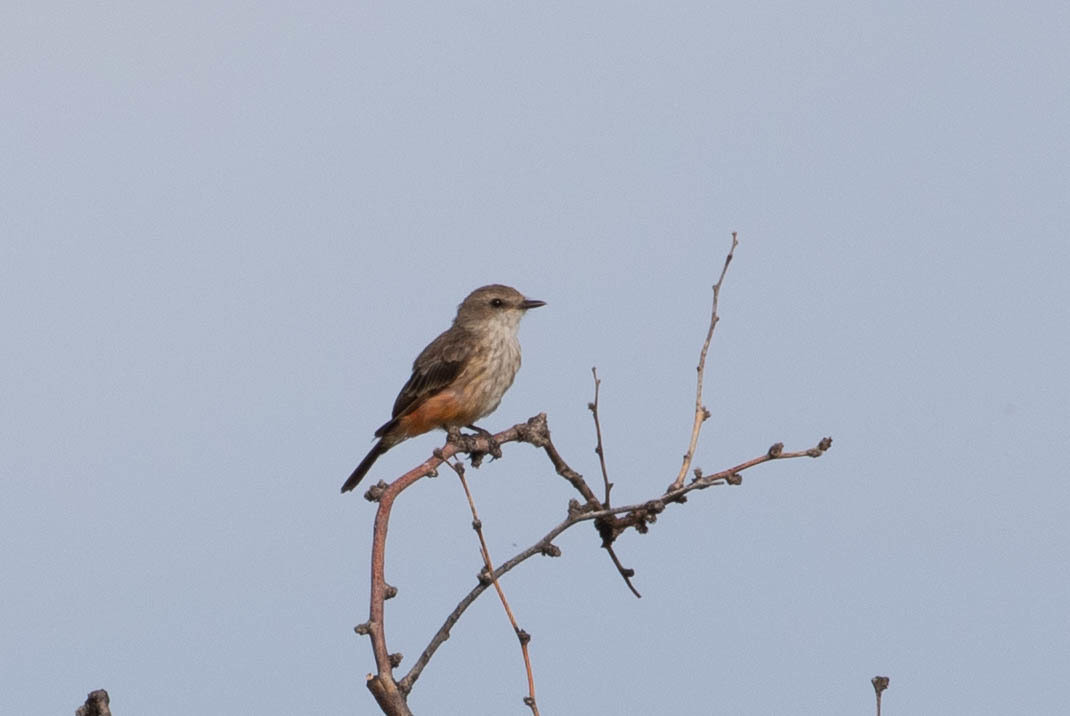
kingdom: Animalia
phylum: Chordata
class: Aves
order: Passeriformes
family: Tyrannidae
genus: Pyrocephalus
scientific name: Pyrocephalus rubinus
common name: Vermilion flycatcher
